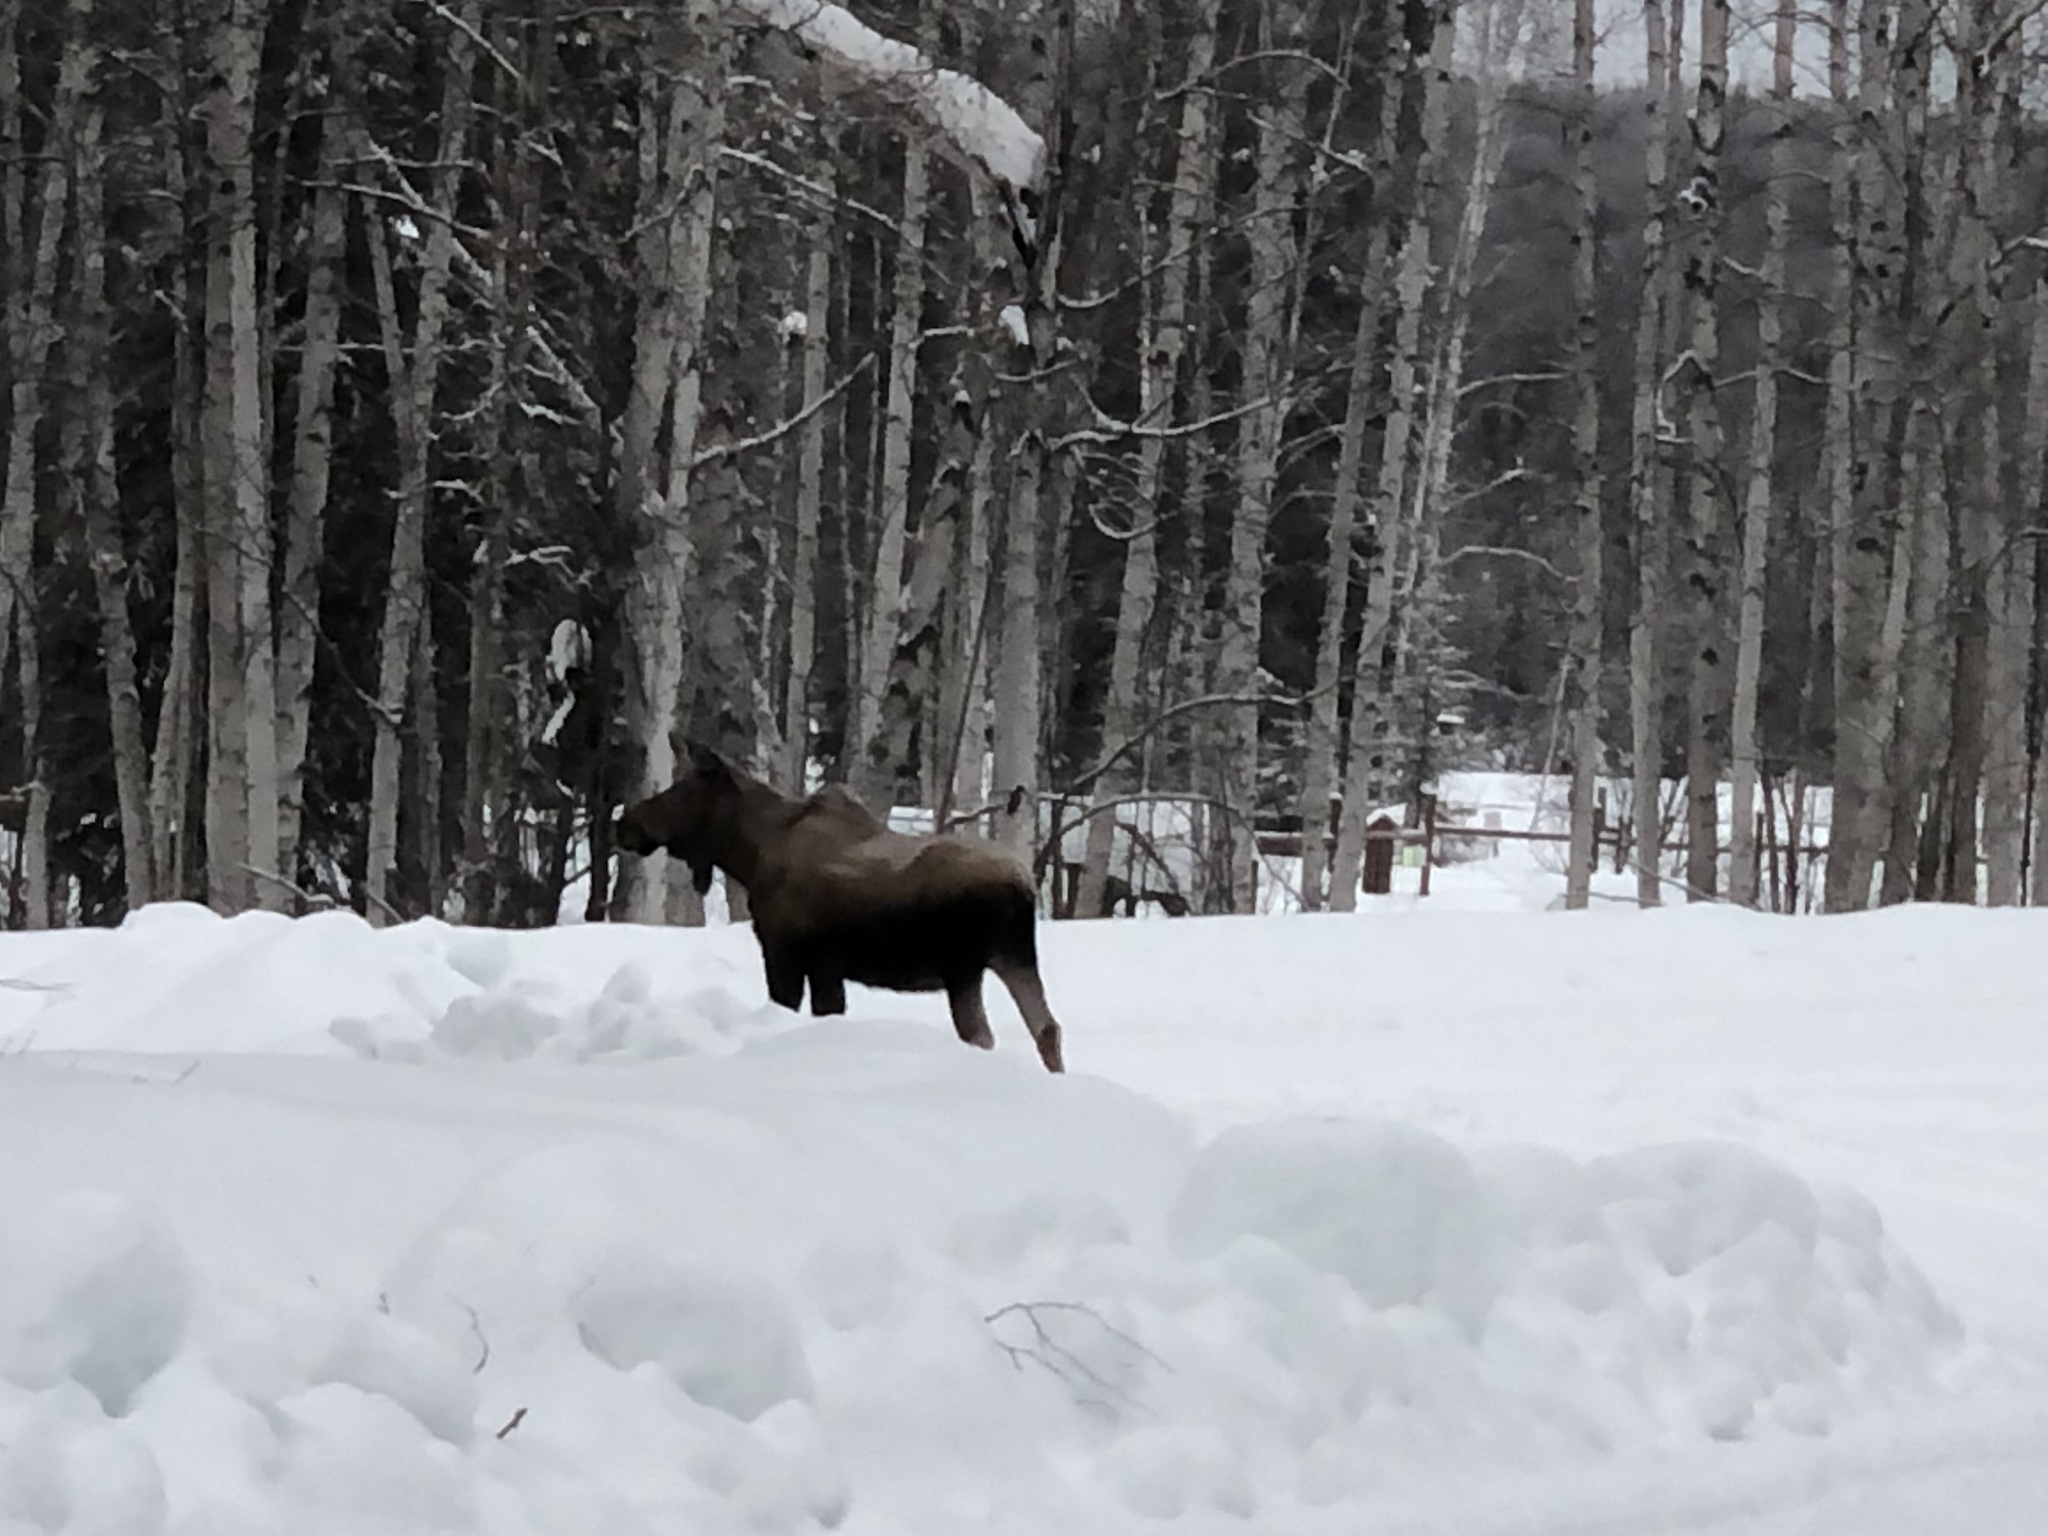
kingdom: Animalia
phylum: Chordata
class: Mammalia
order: Artiodactyla
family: Cervidae
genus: Alces
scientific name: Alces alces
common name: Moose
